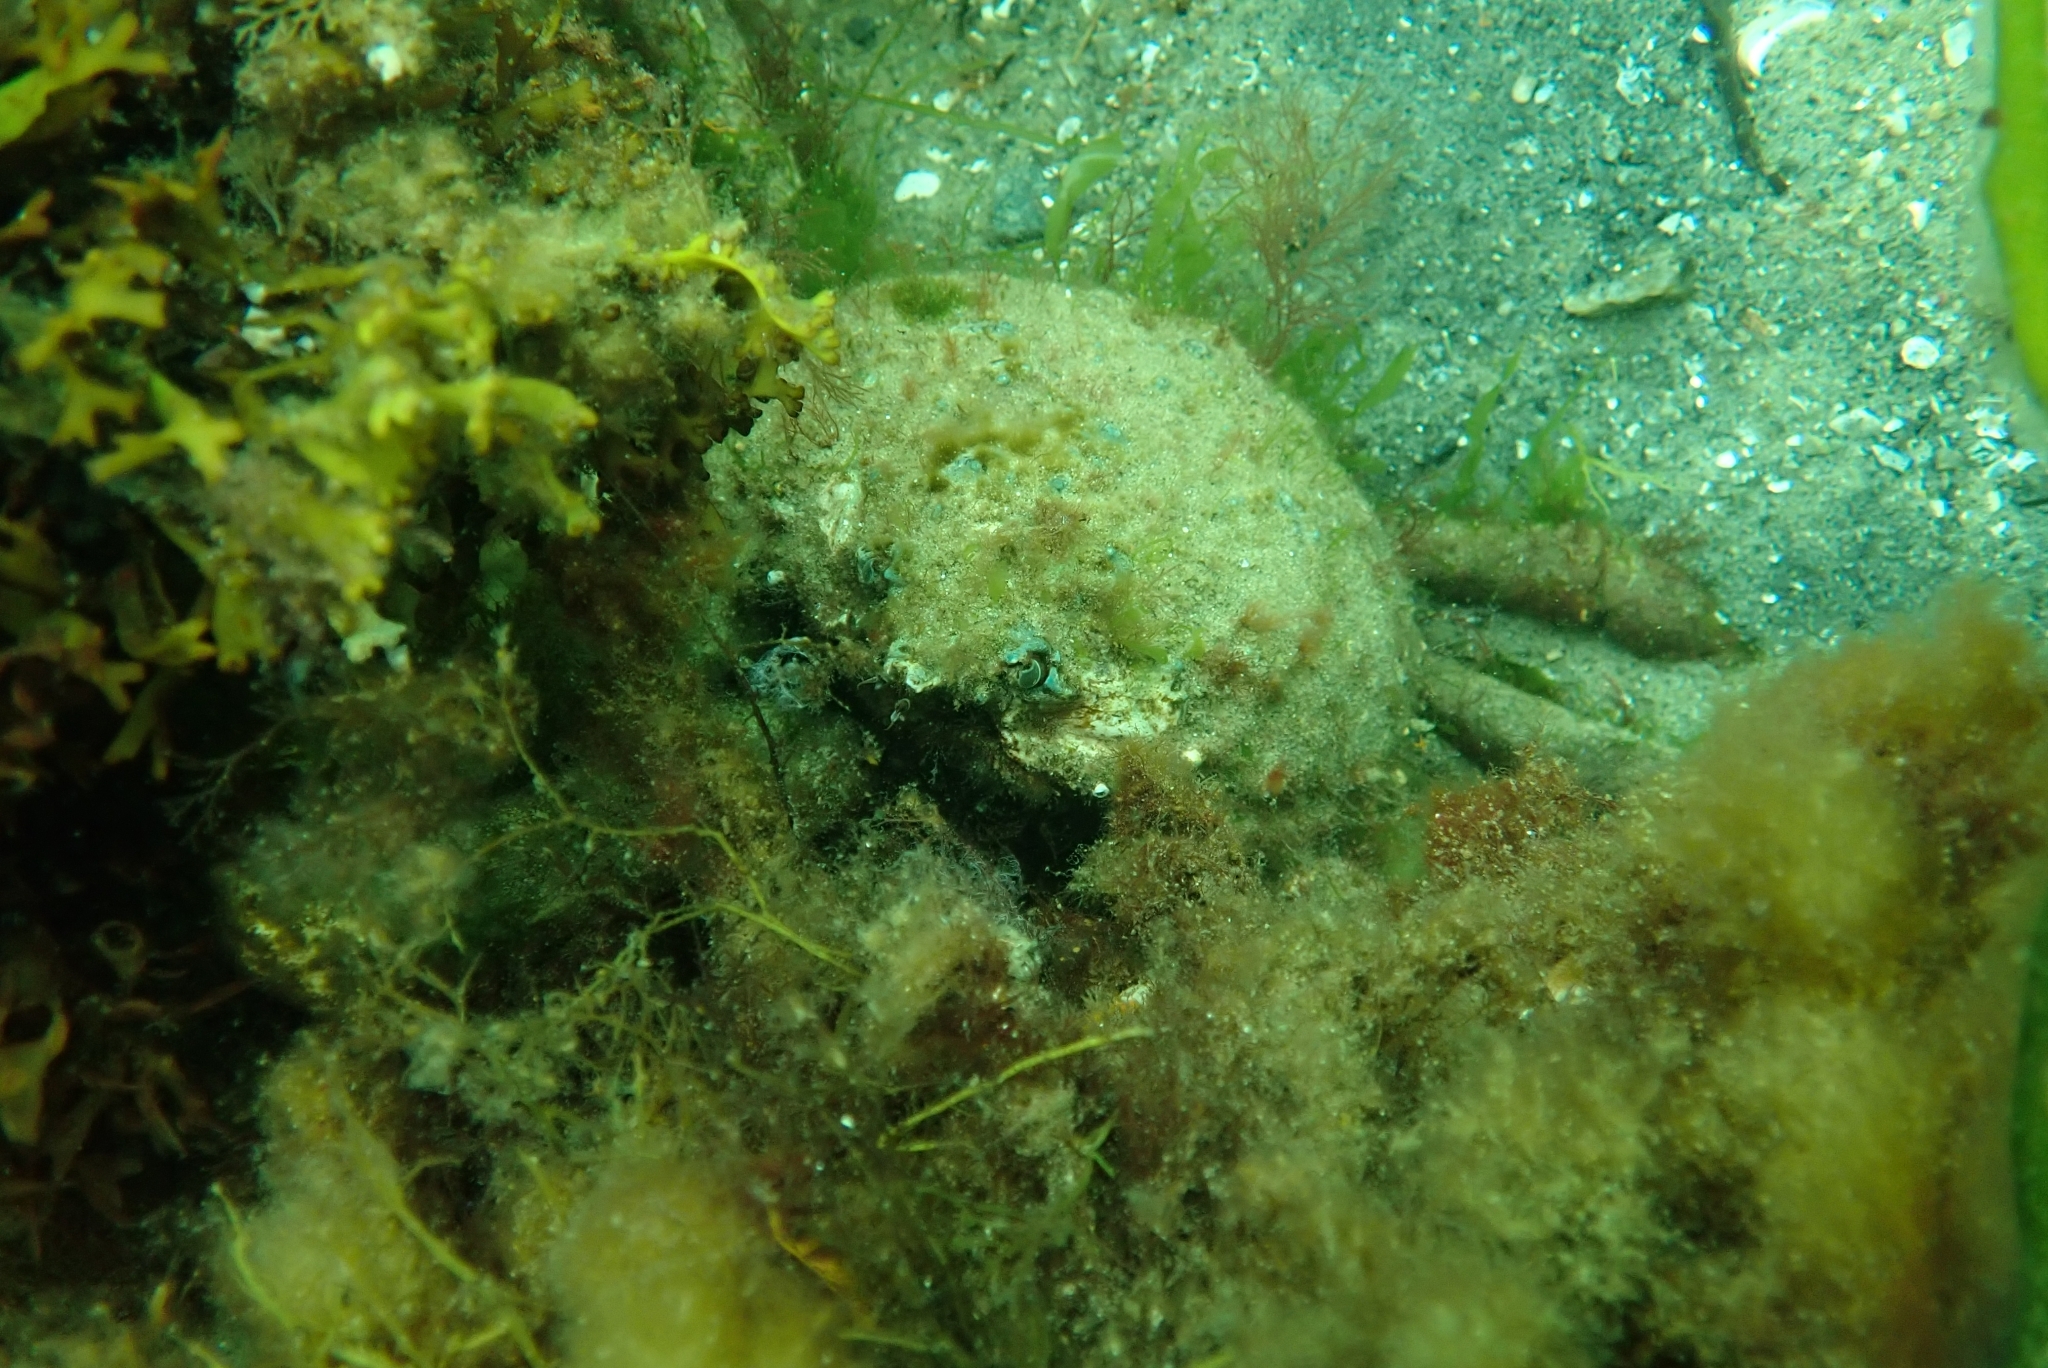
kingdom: Animalia
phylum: Arthropoda
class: Malacostraca
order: Decapoda
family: Epialtidae
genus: Libinia
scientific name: Libinia emarginata
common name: Common spider crab
